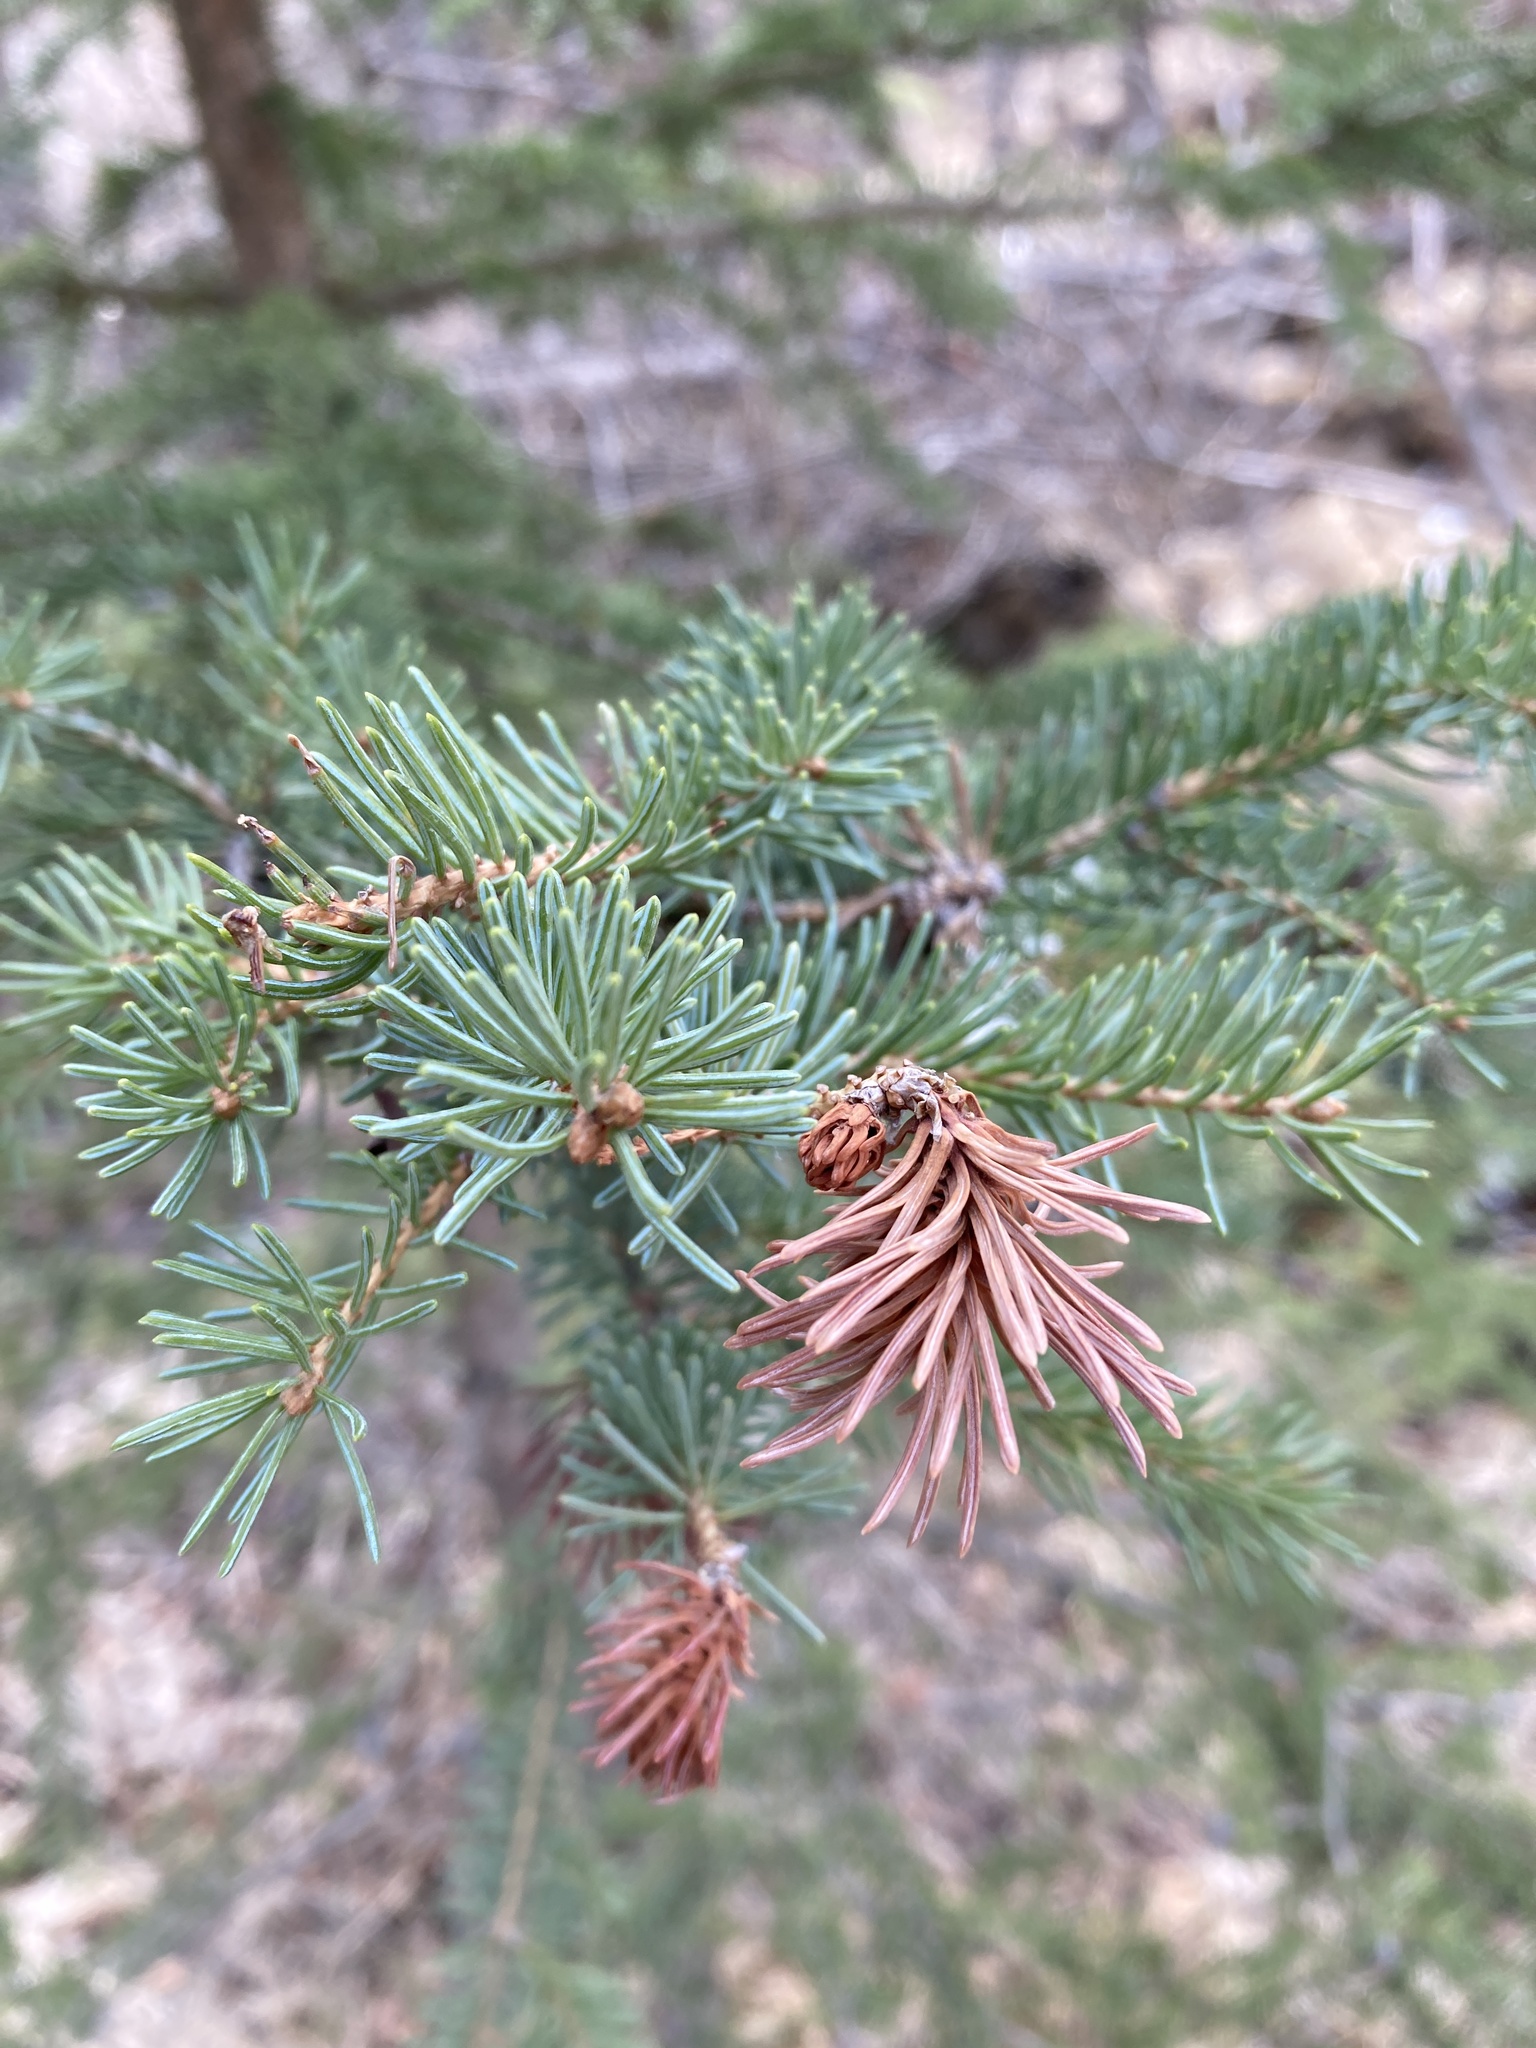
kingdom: Plantae
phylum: Tracheophyta
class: Pinopsida
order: Pinales
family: Pinaceae
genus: Picea
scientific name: Picea glauca
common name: White spruce
